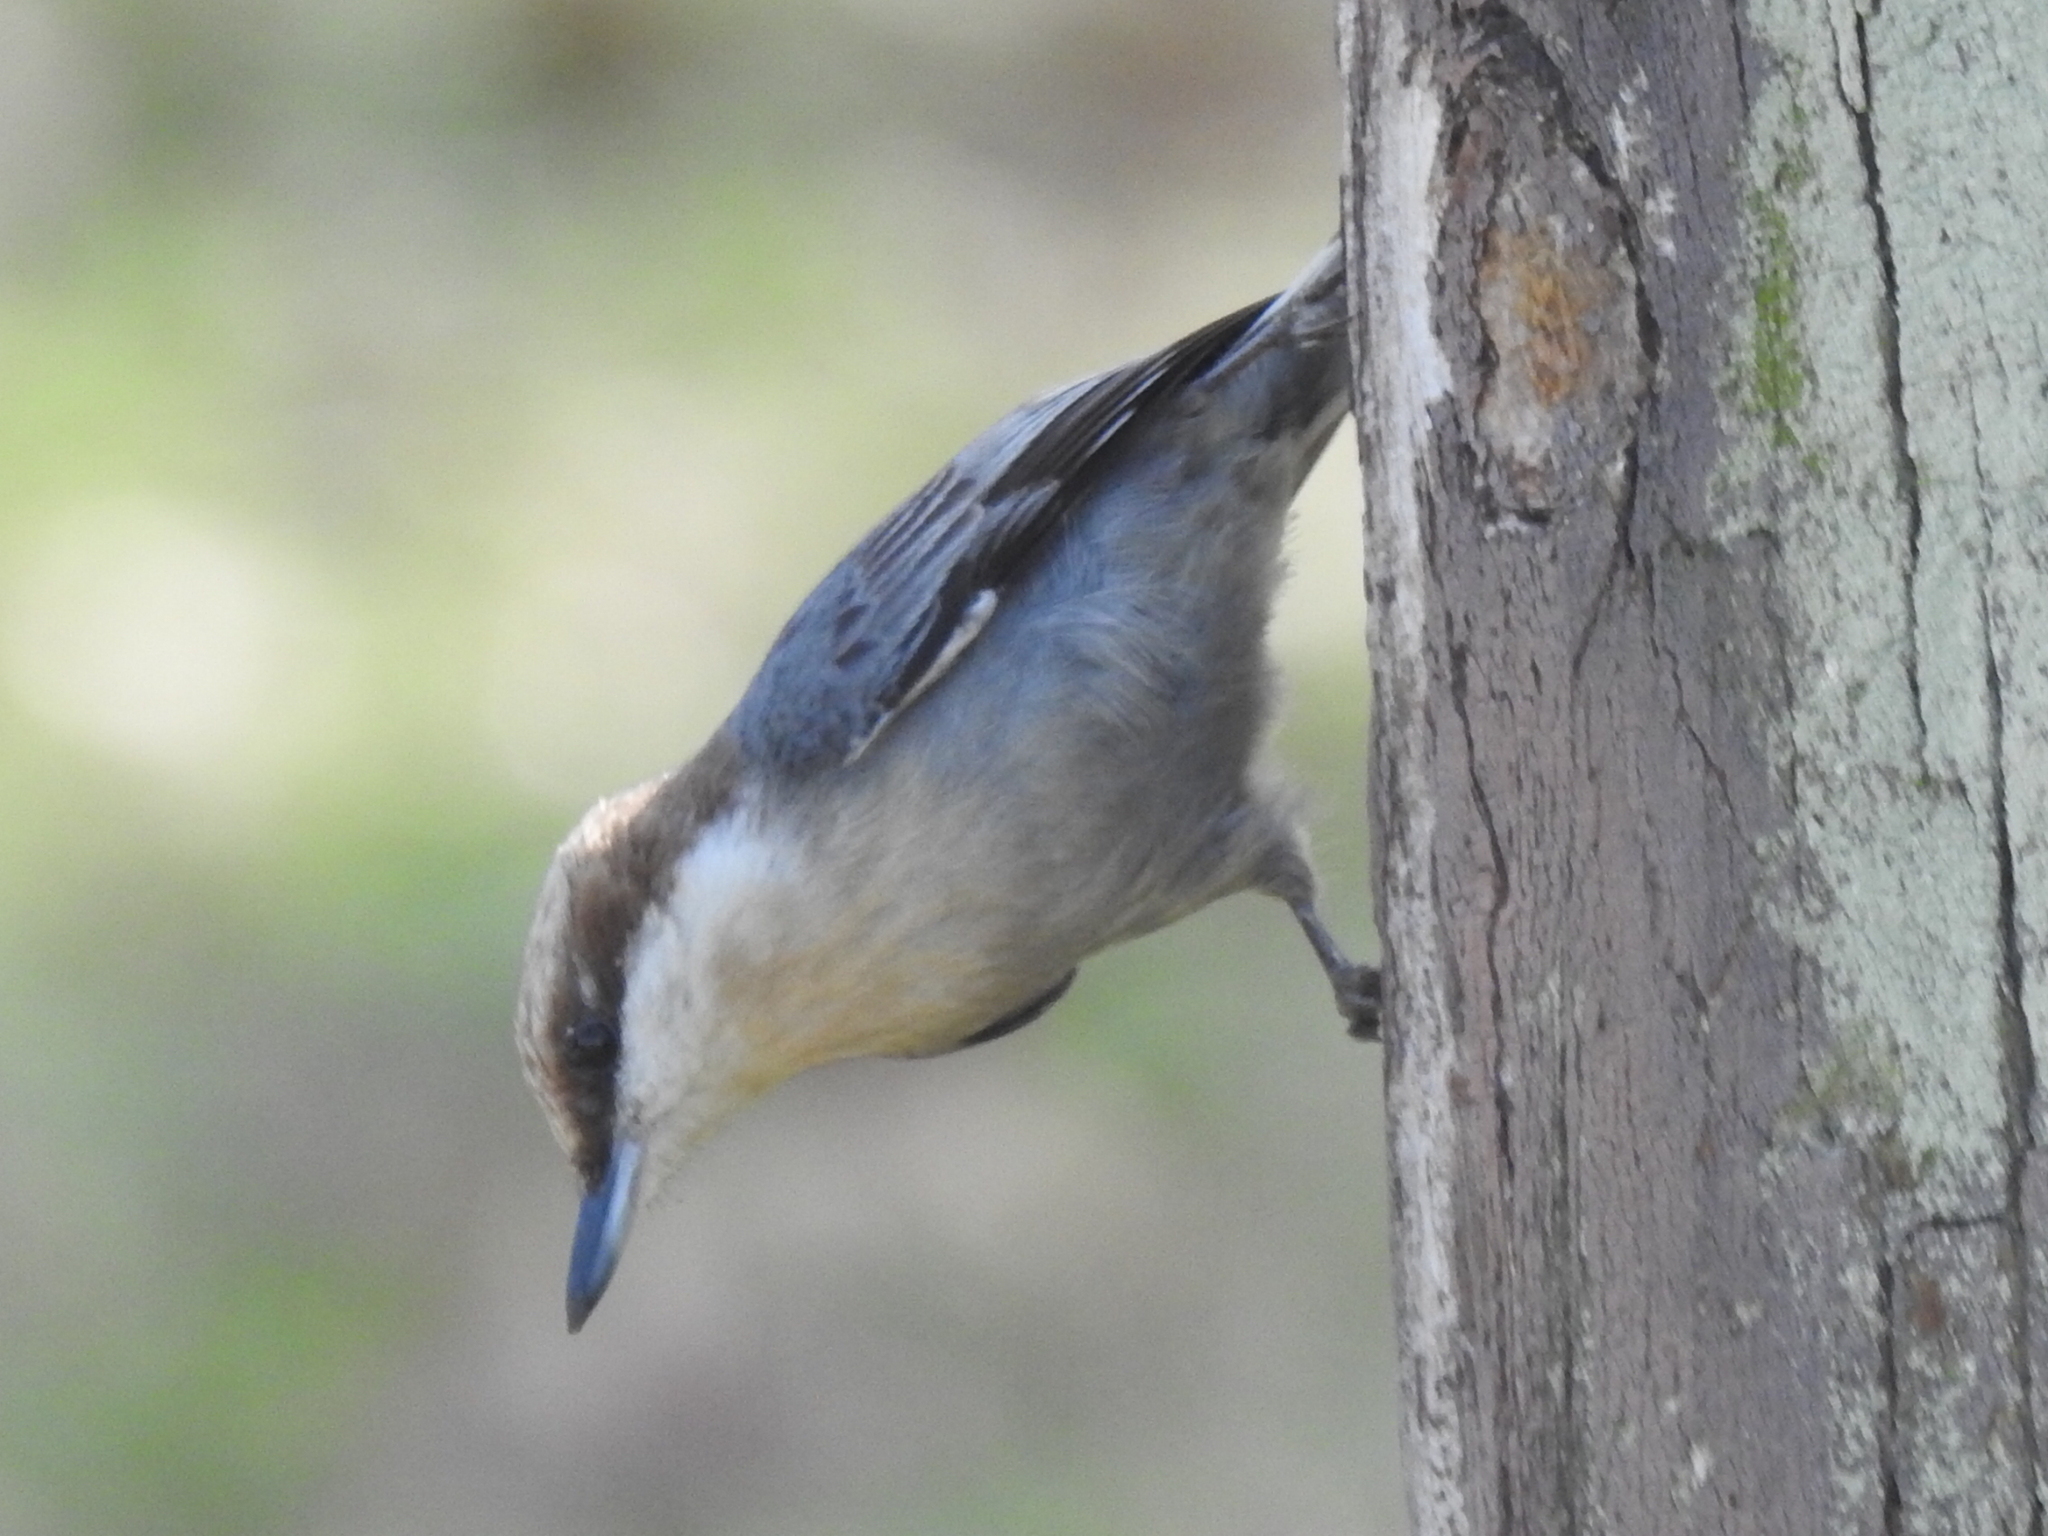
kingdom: Animalia
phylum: Chordata
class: Aves
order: Passeriformes
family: Sittidae
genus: Sitta
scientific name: Sitta pusilla
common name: Brown-headed nuthatch
